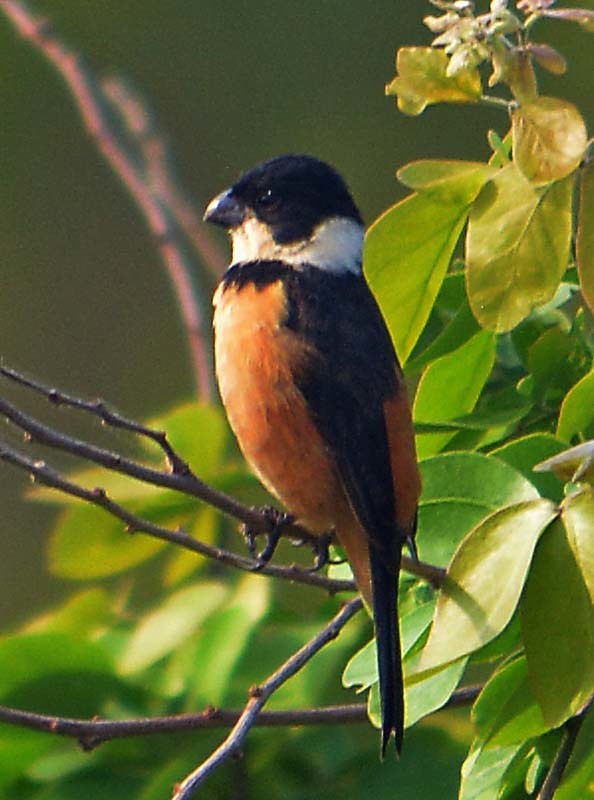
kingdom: Animalia
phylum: Chordata
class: Aves
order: Passeriformes
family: Thraupidae
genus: Sporophila
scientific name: Sporophila torqueola
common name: White-collared seedeater
